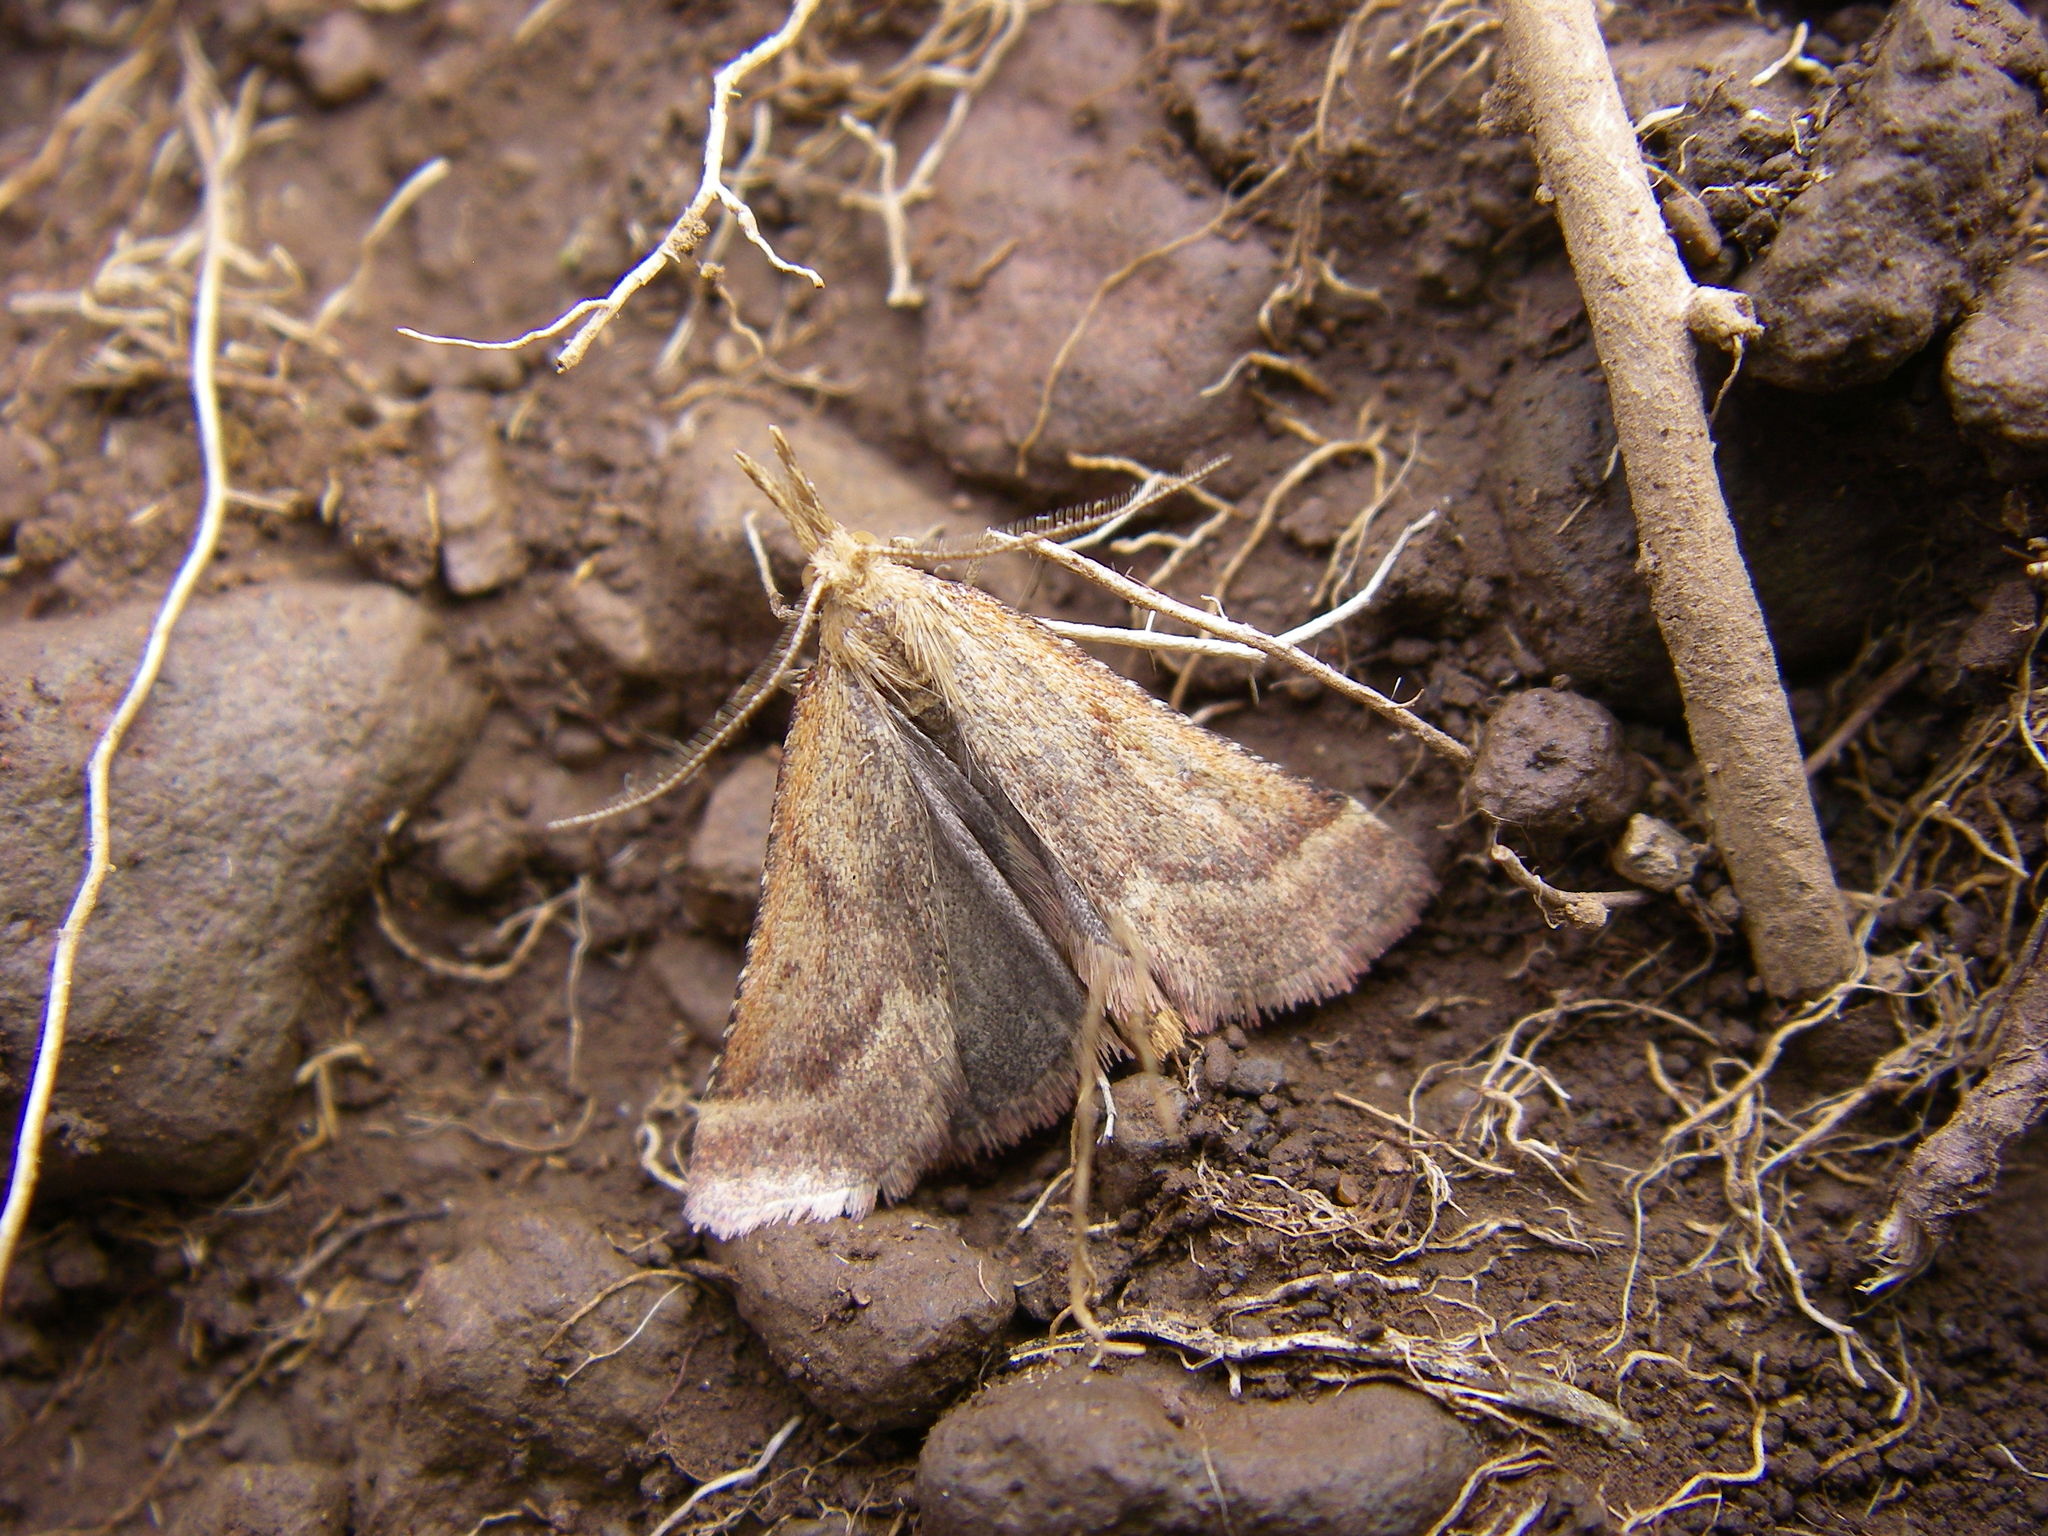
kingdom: Animalia
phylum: Arthropoda
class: Insecta
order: Lepidoptera
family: Pyralidae
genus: Synaphe
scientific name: Synaphe punctalis
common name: Long-legged tabby
